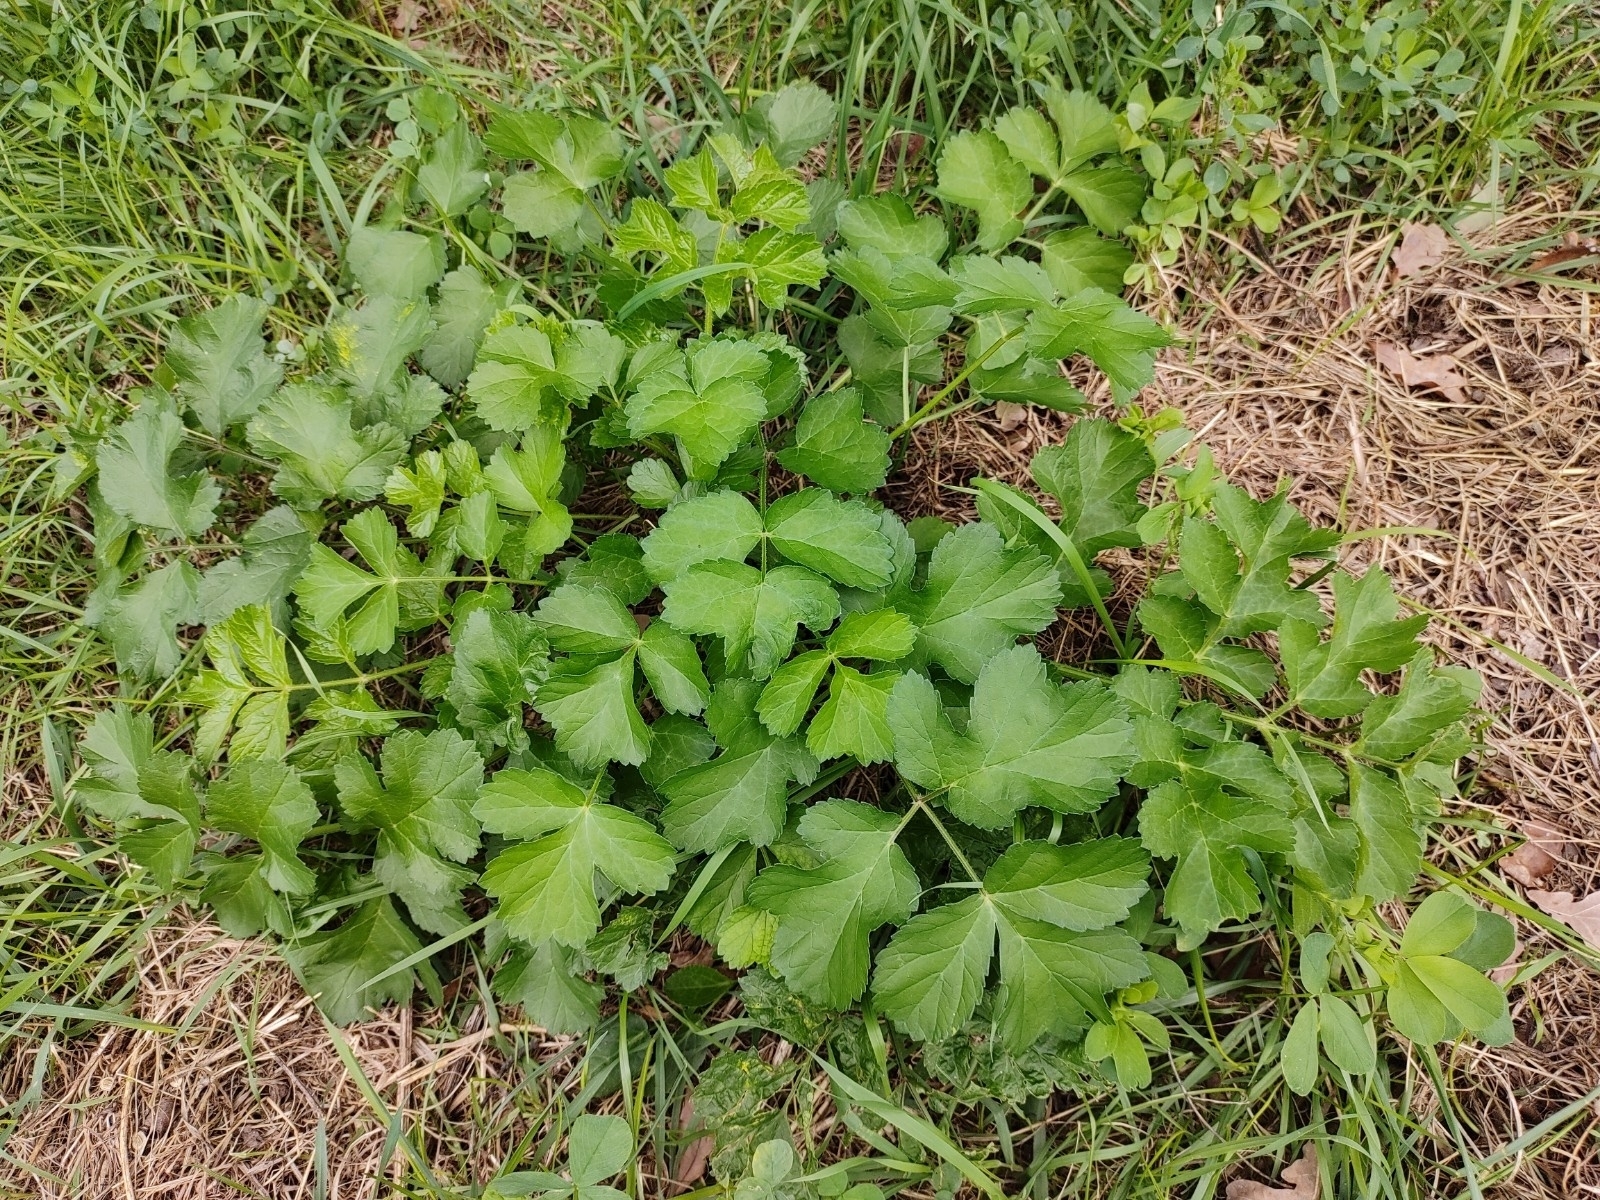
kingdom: Plantae
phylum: Tracheophyta
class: Magnoliopsida
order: Apiales
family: Apiaceae
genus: Heracleum
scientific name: Heracleum sphondylium
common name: Hogweed
